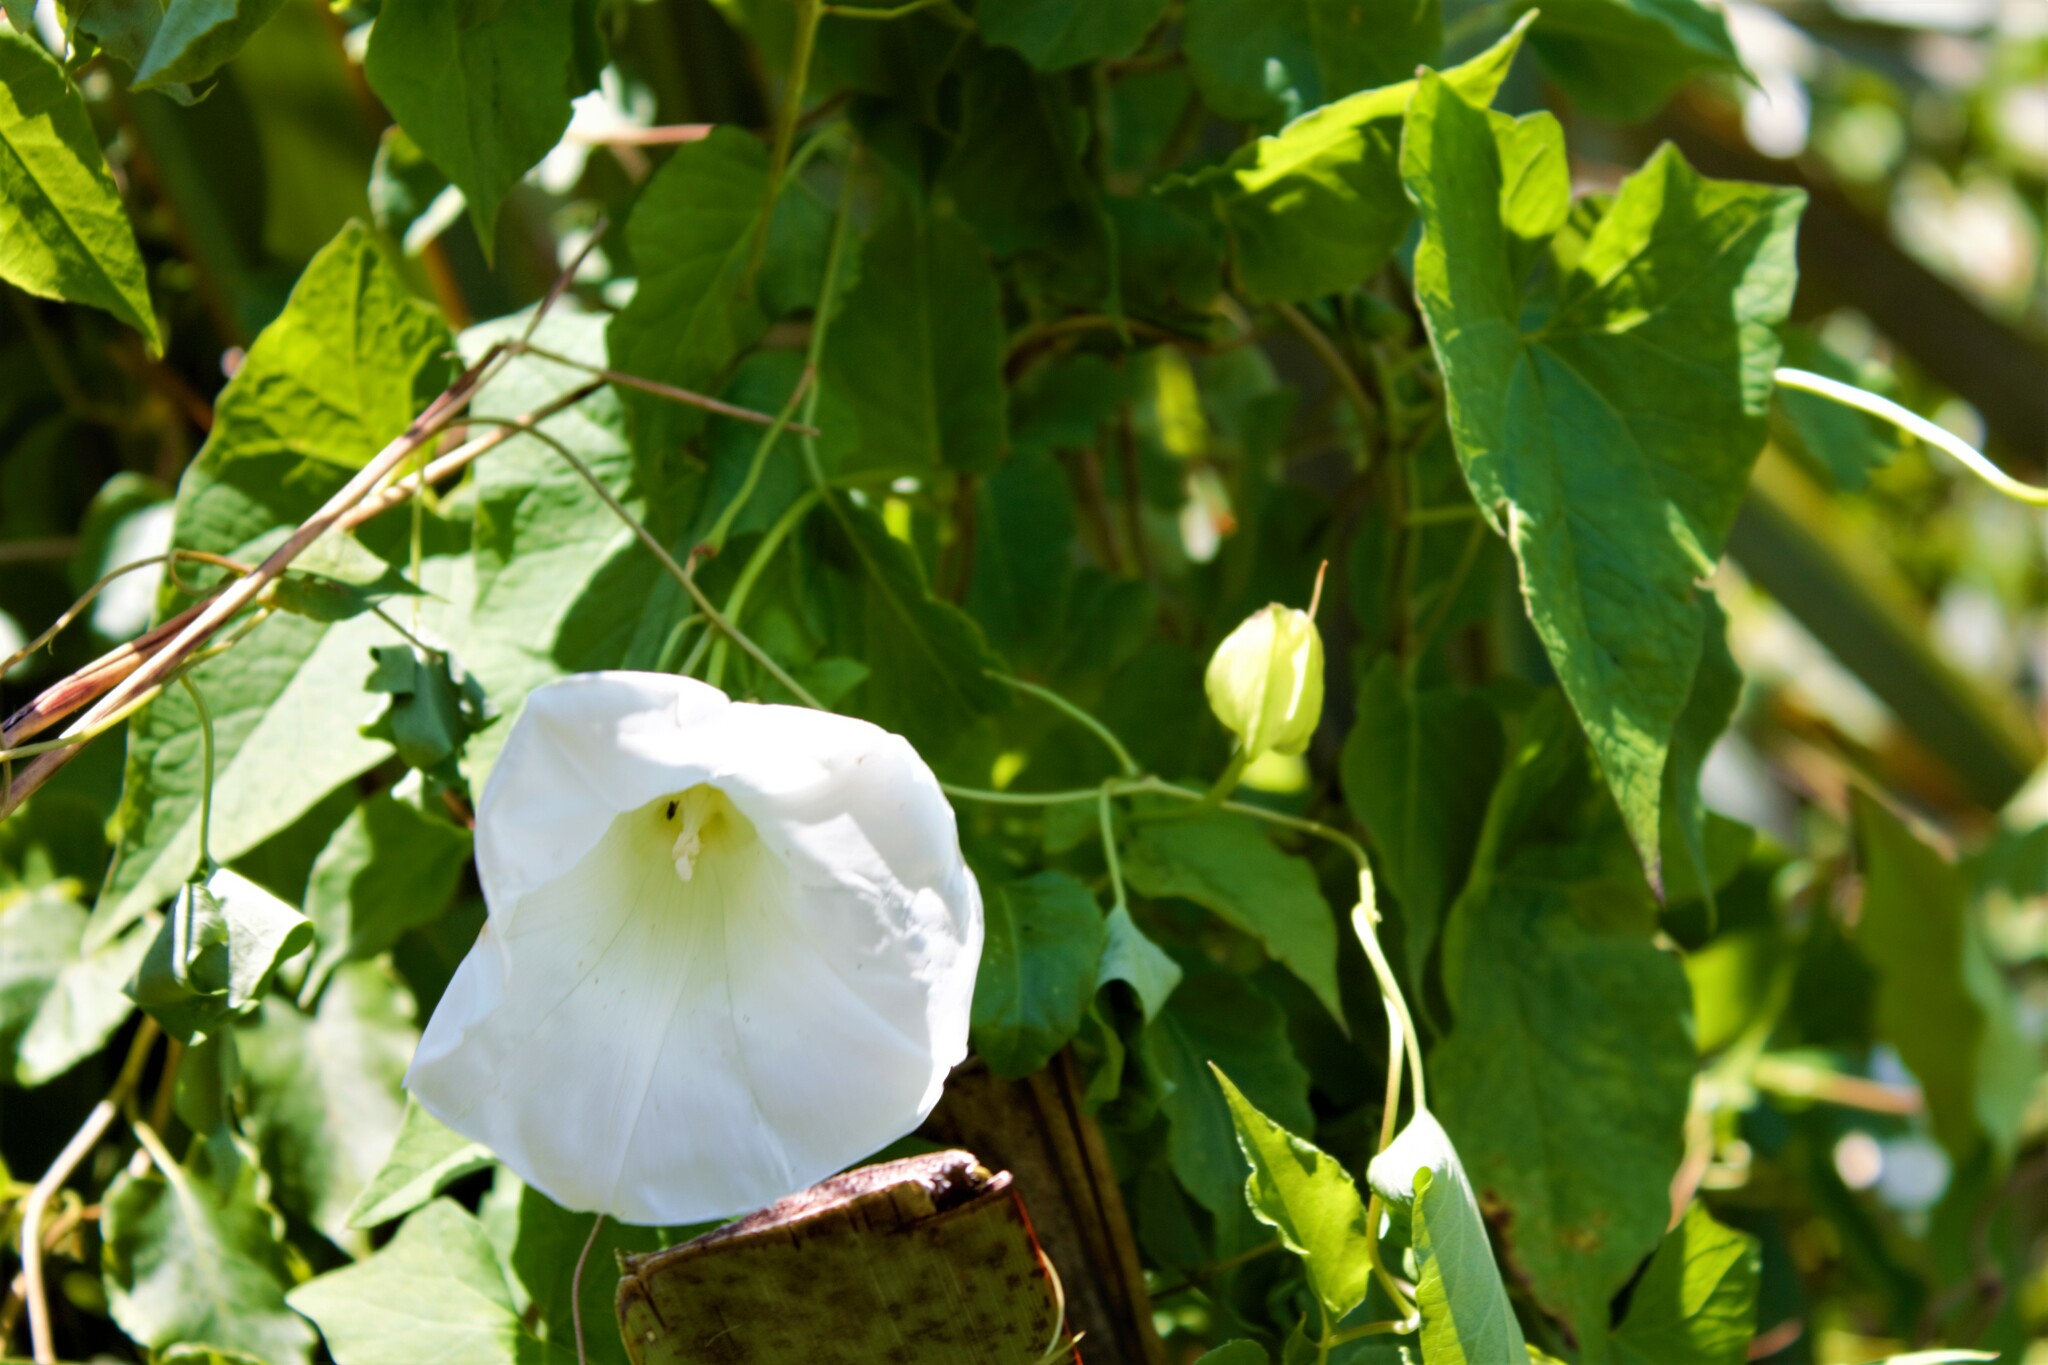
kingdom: Plantae
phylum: Tracheophyta
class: Magnoliopsida
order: Solanales
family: Convolvulaceae
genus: Calystegia
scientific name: Calystegia silvatica
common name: Large bindweed
